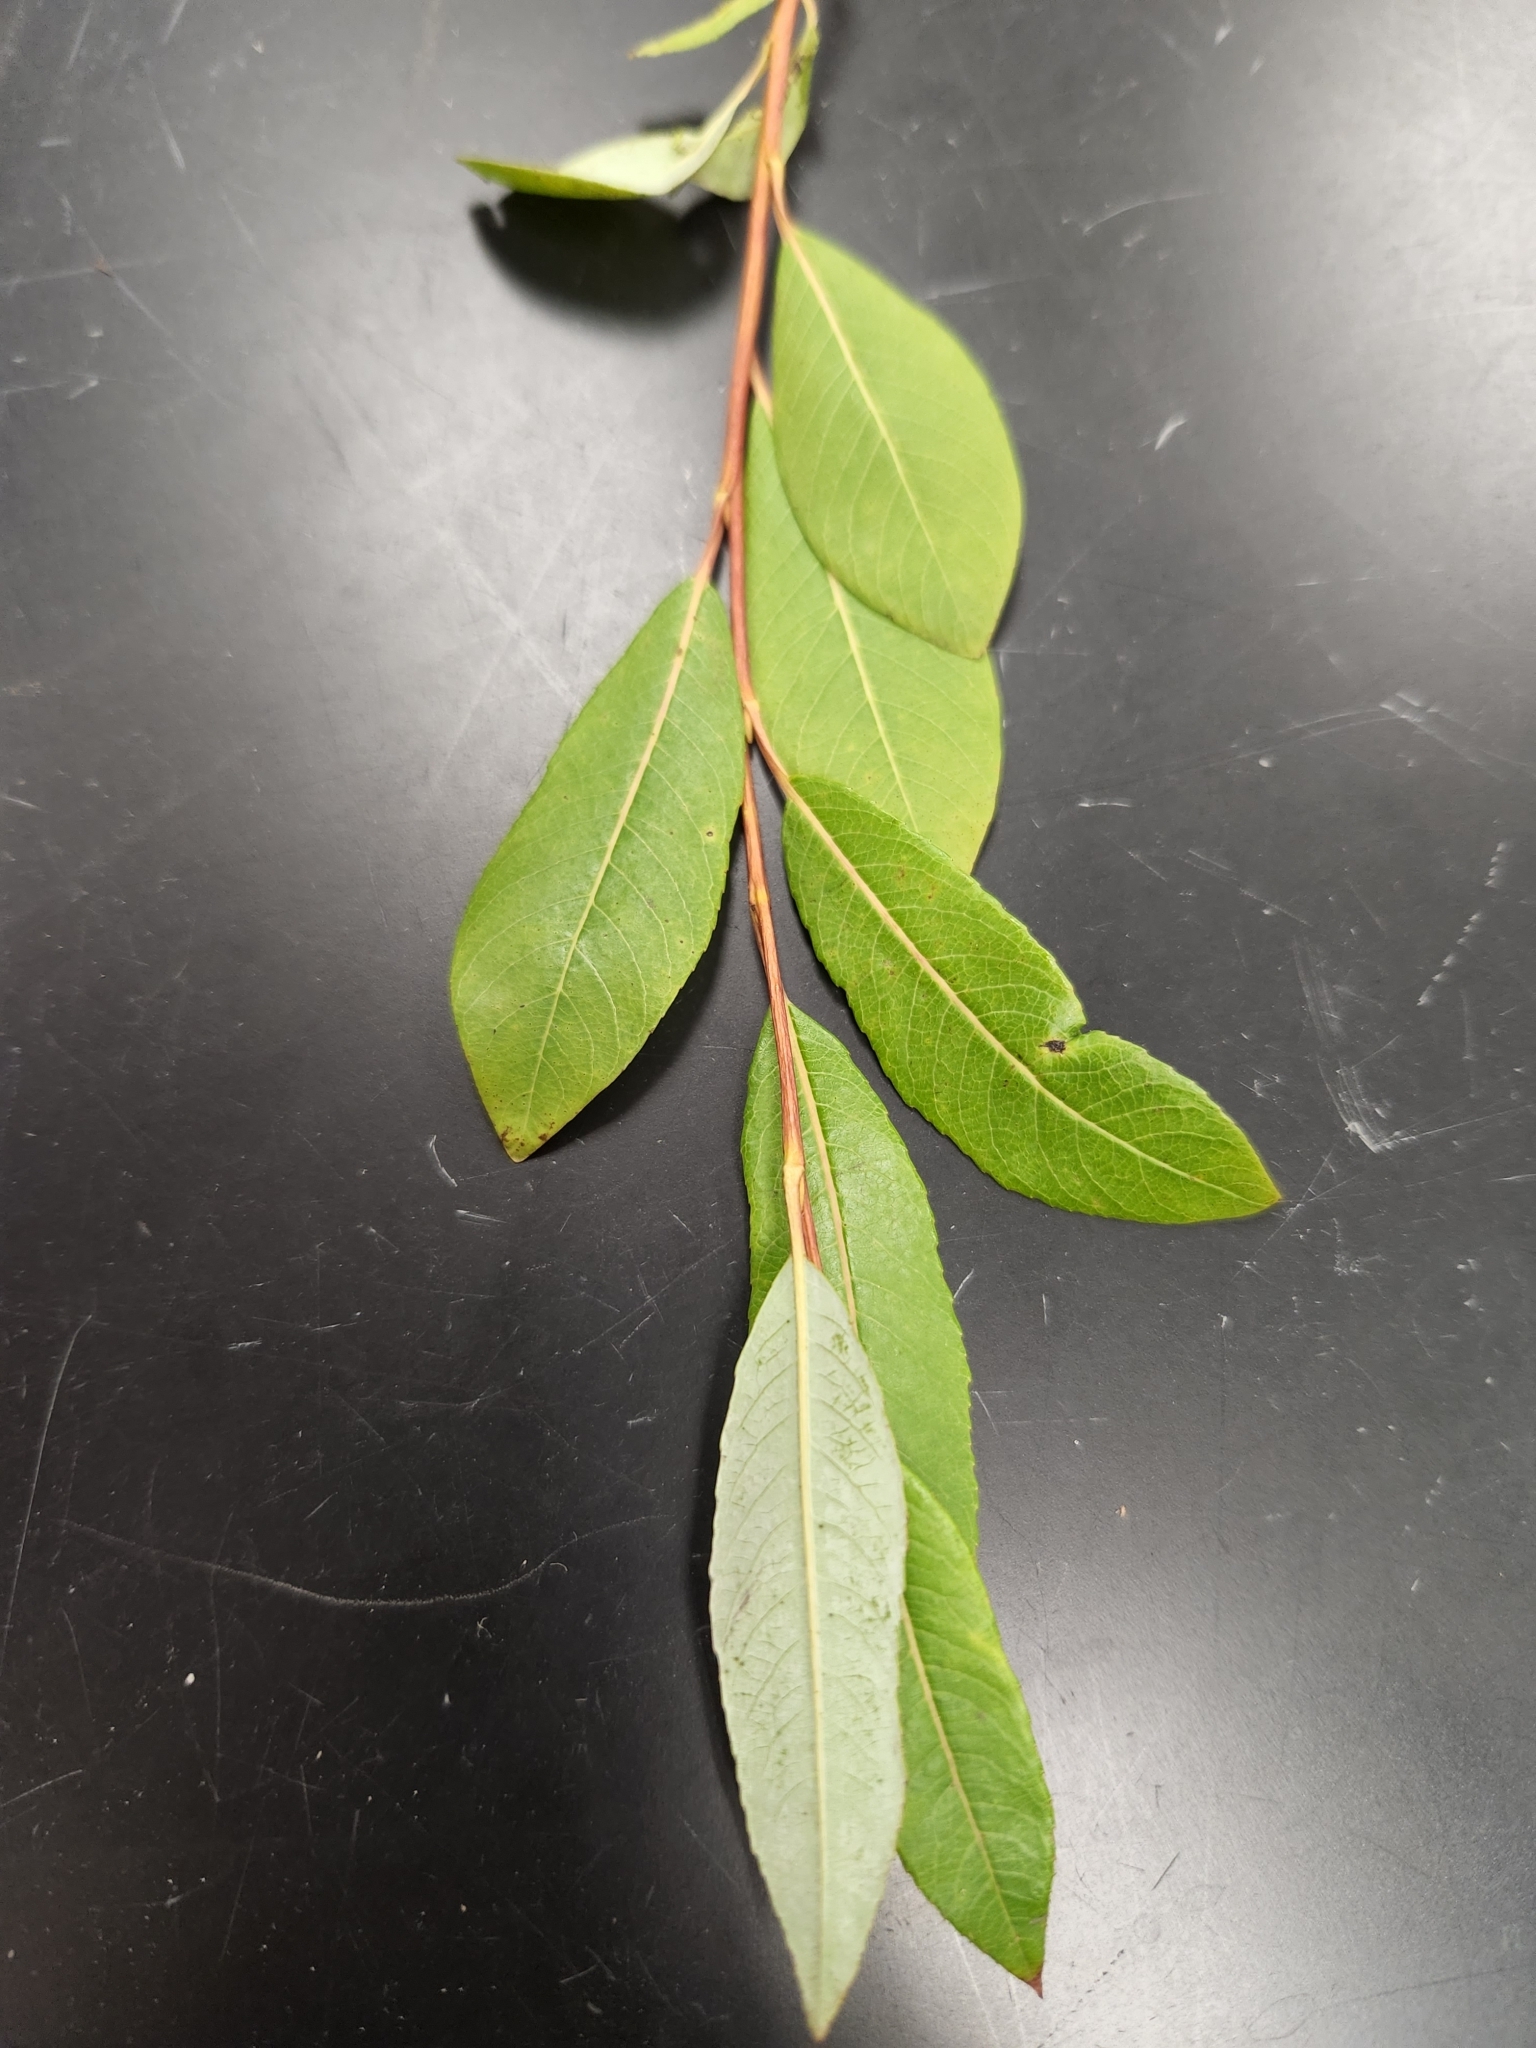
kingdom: Plantae
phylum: Tracheophyta
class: Magnoliopsida
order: Malpighiales
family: Salicaceae
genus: Salix
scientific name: Salix planifolia
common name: Mountain willow
